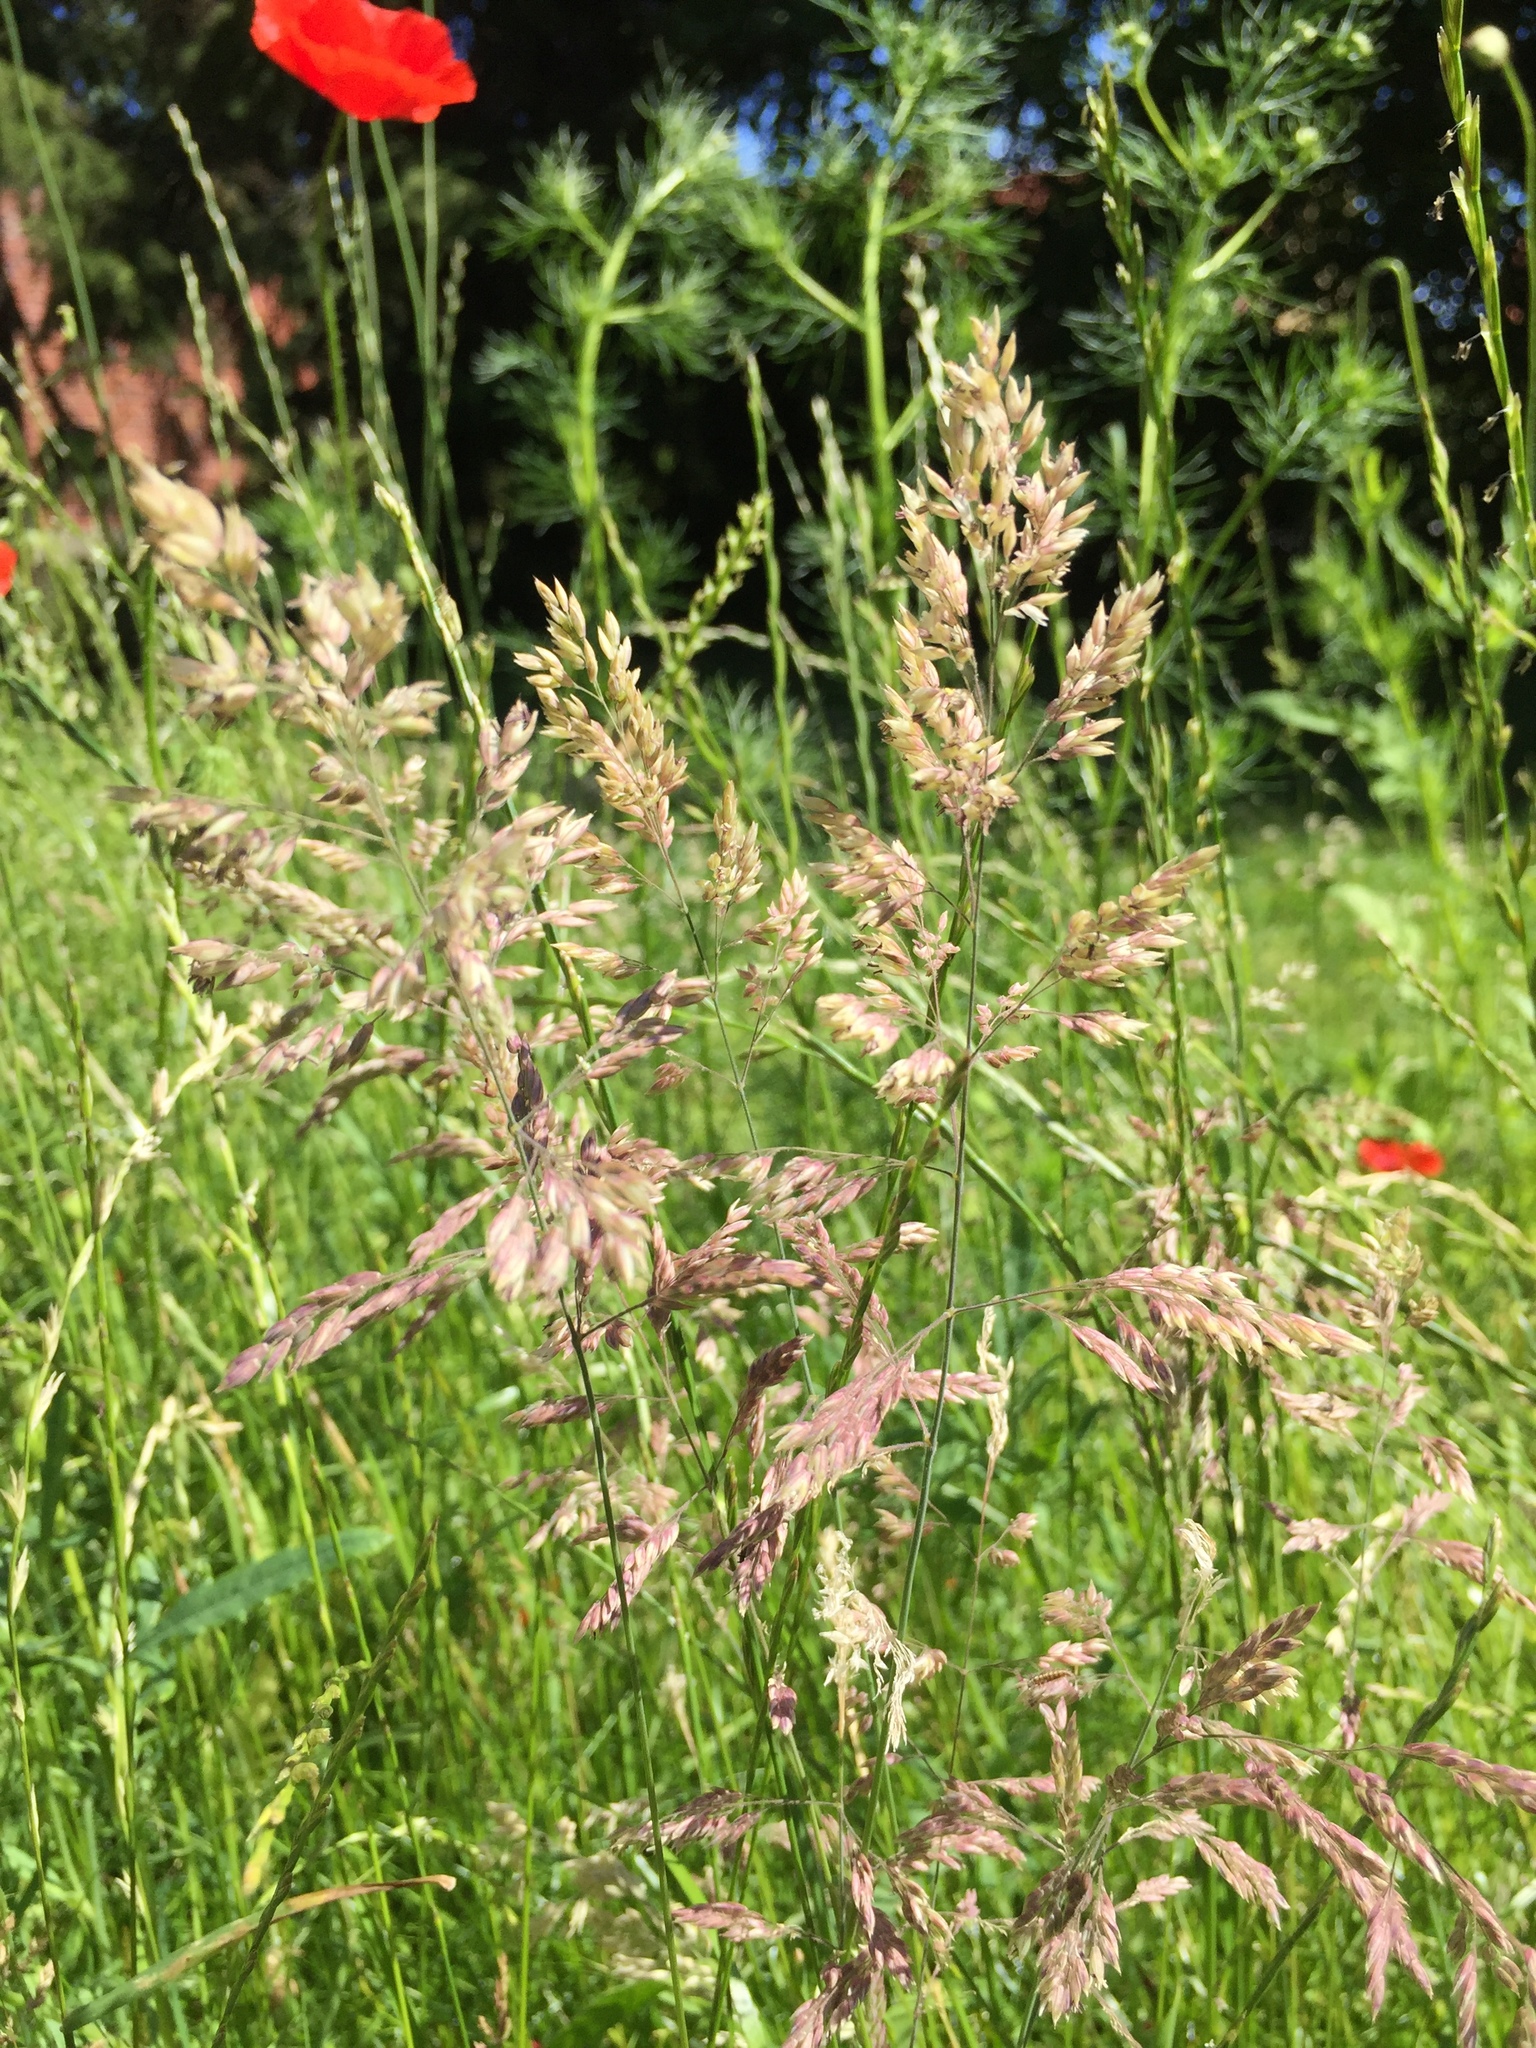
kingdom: Plantae
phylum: Tracheophyta
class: Liliopsida
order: Poales
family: Poaceae
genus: Holcus
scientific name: Holcus lanatus
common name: Yorkshire-fog
